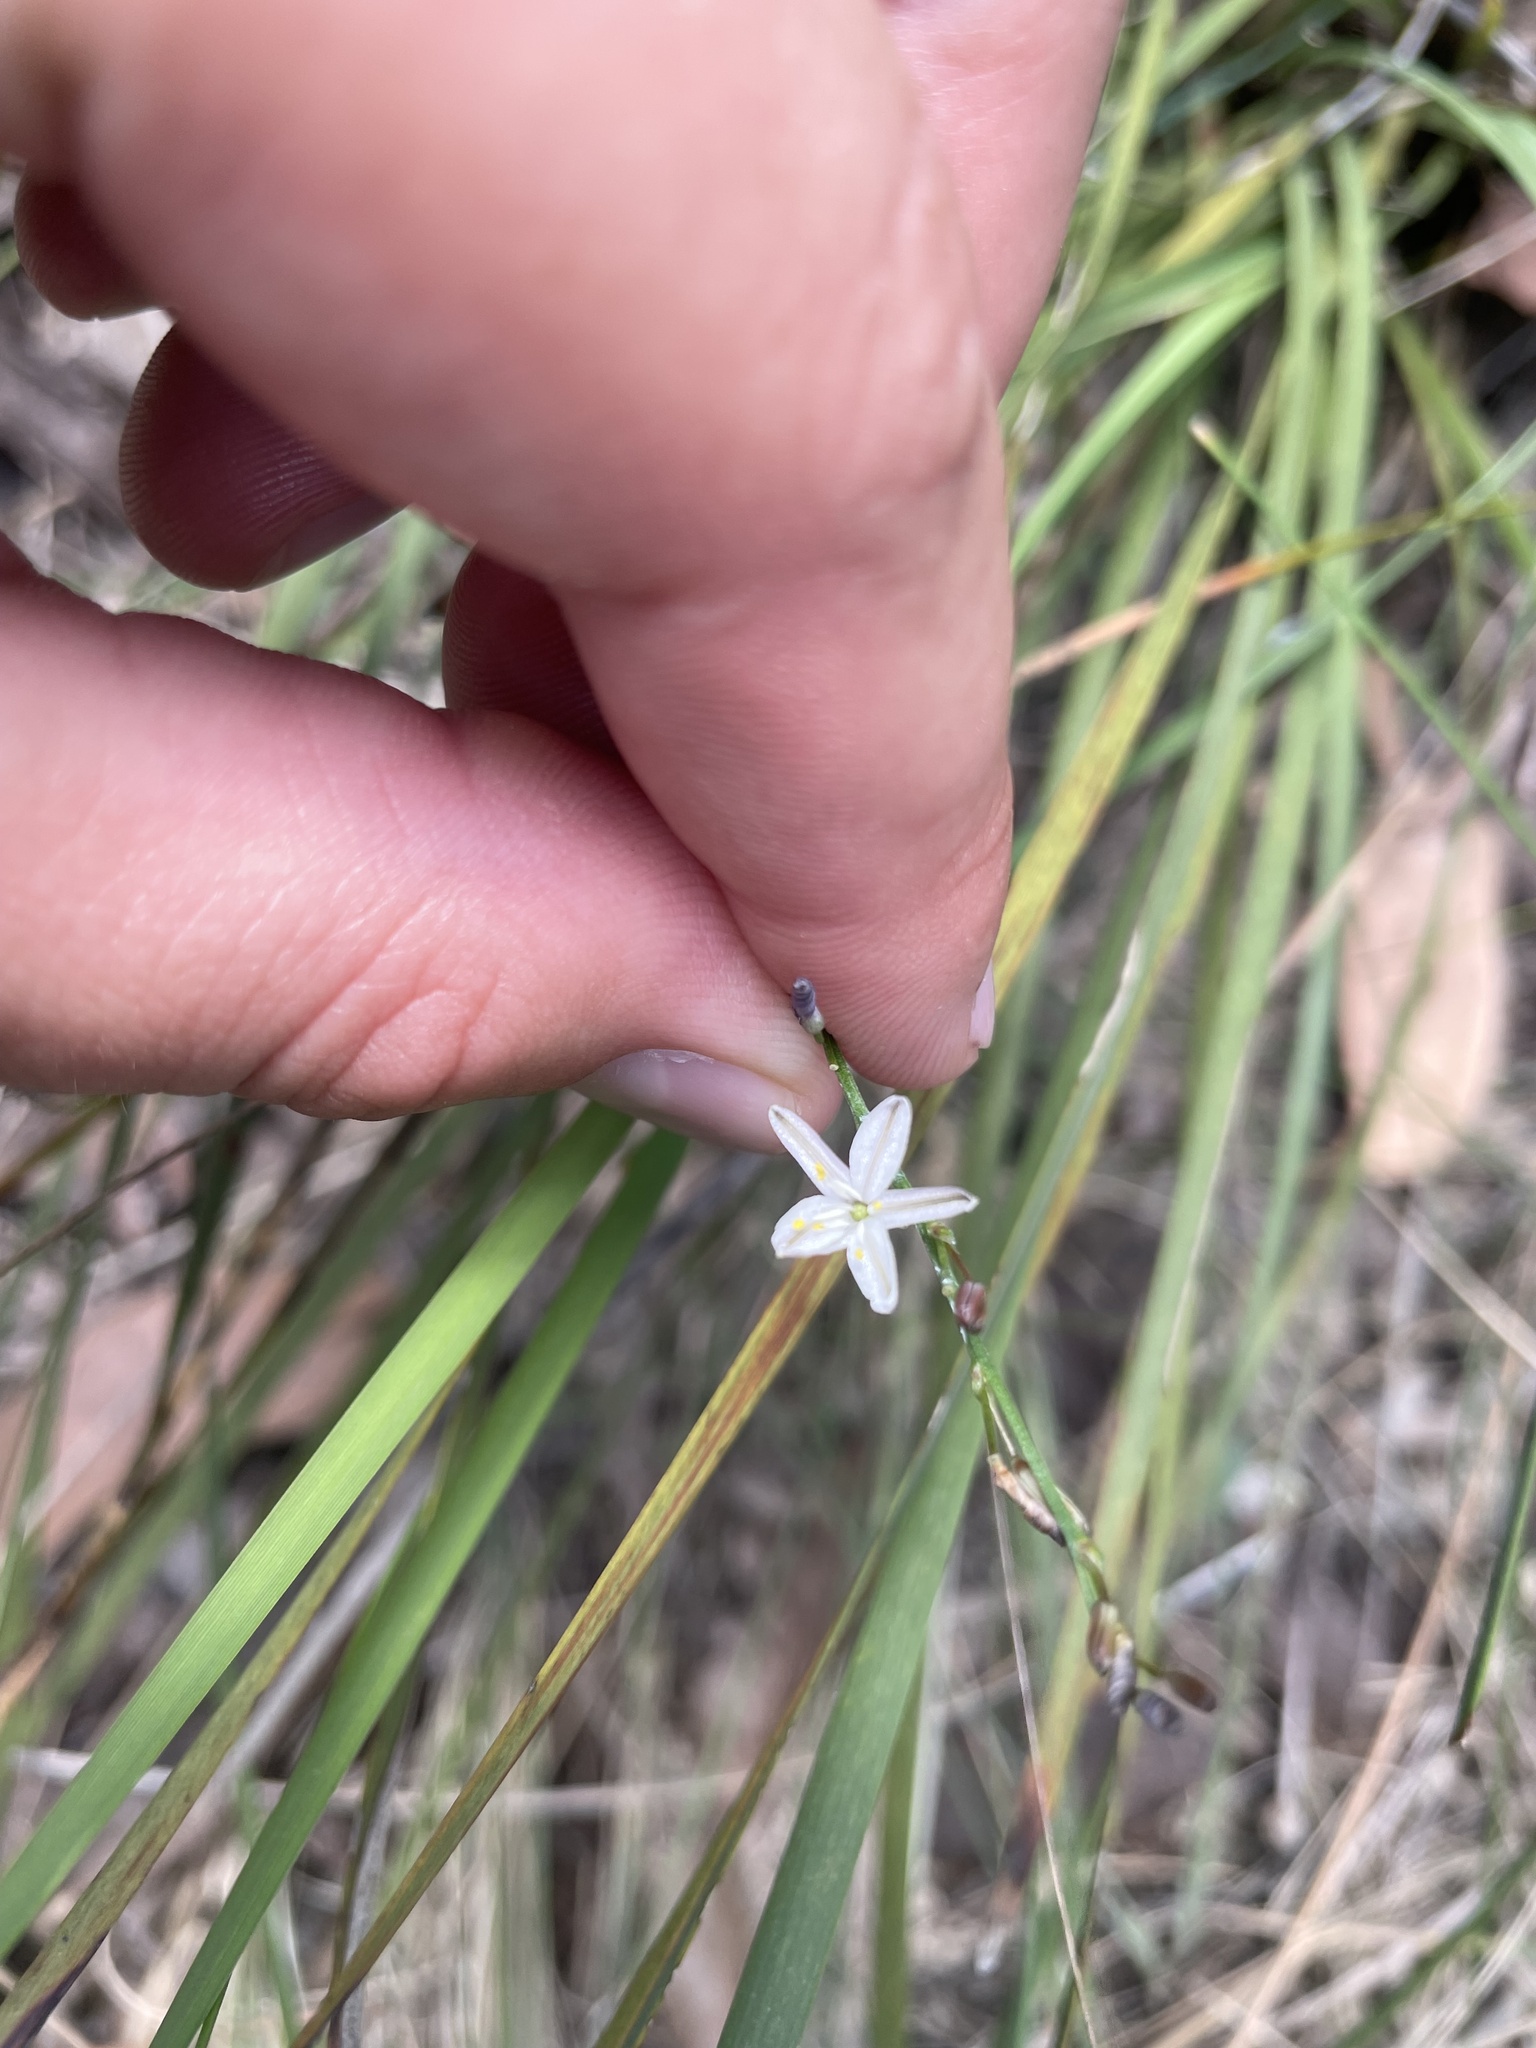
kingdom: Plantae
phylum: Tracheophyta
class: Liliopsida
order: Asparagales
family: Asphodelaceae
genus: Caesia
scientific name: Caesia parviflora
